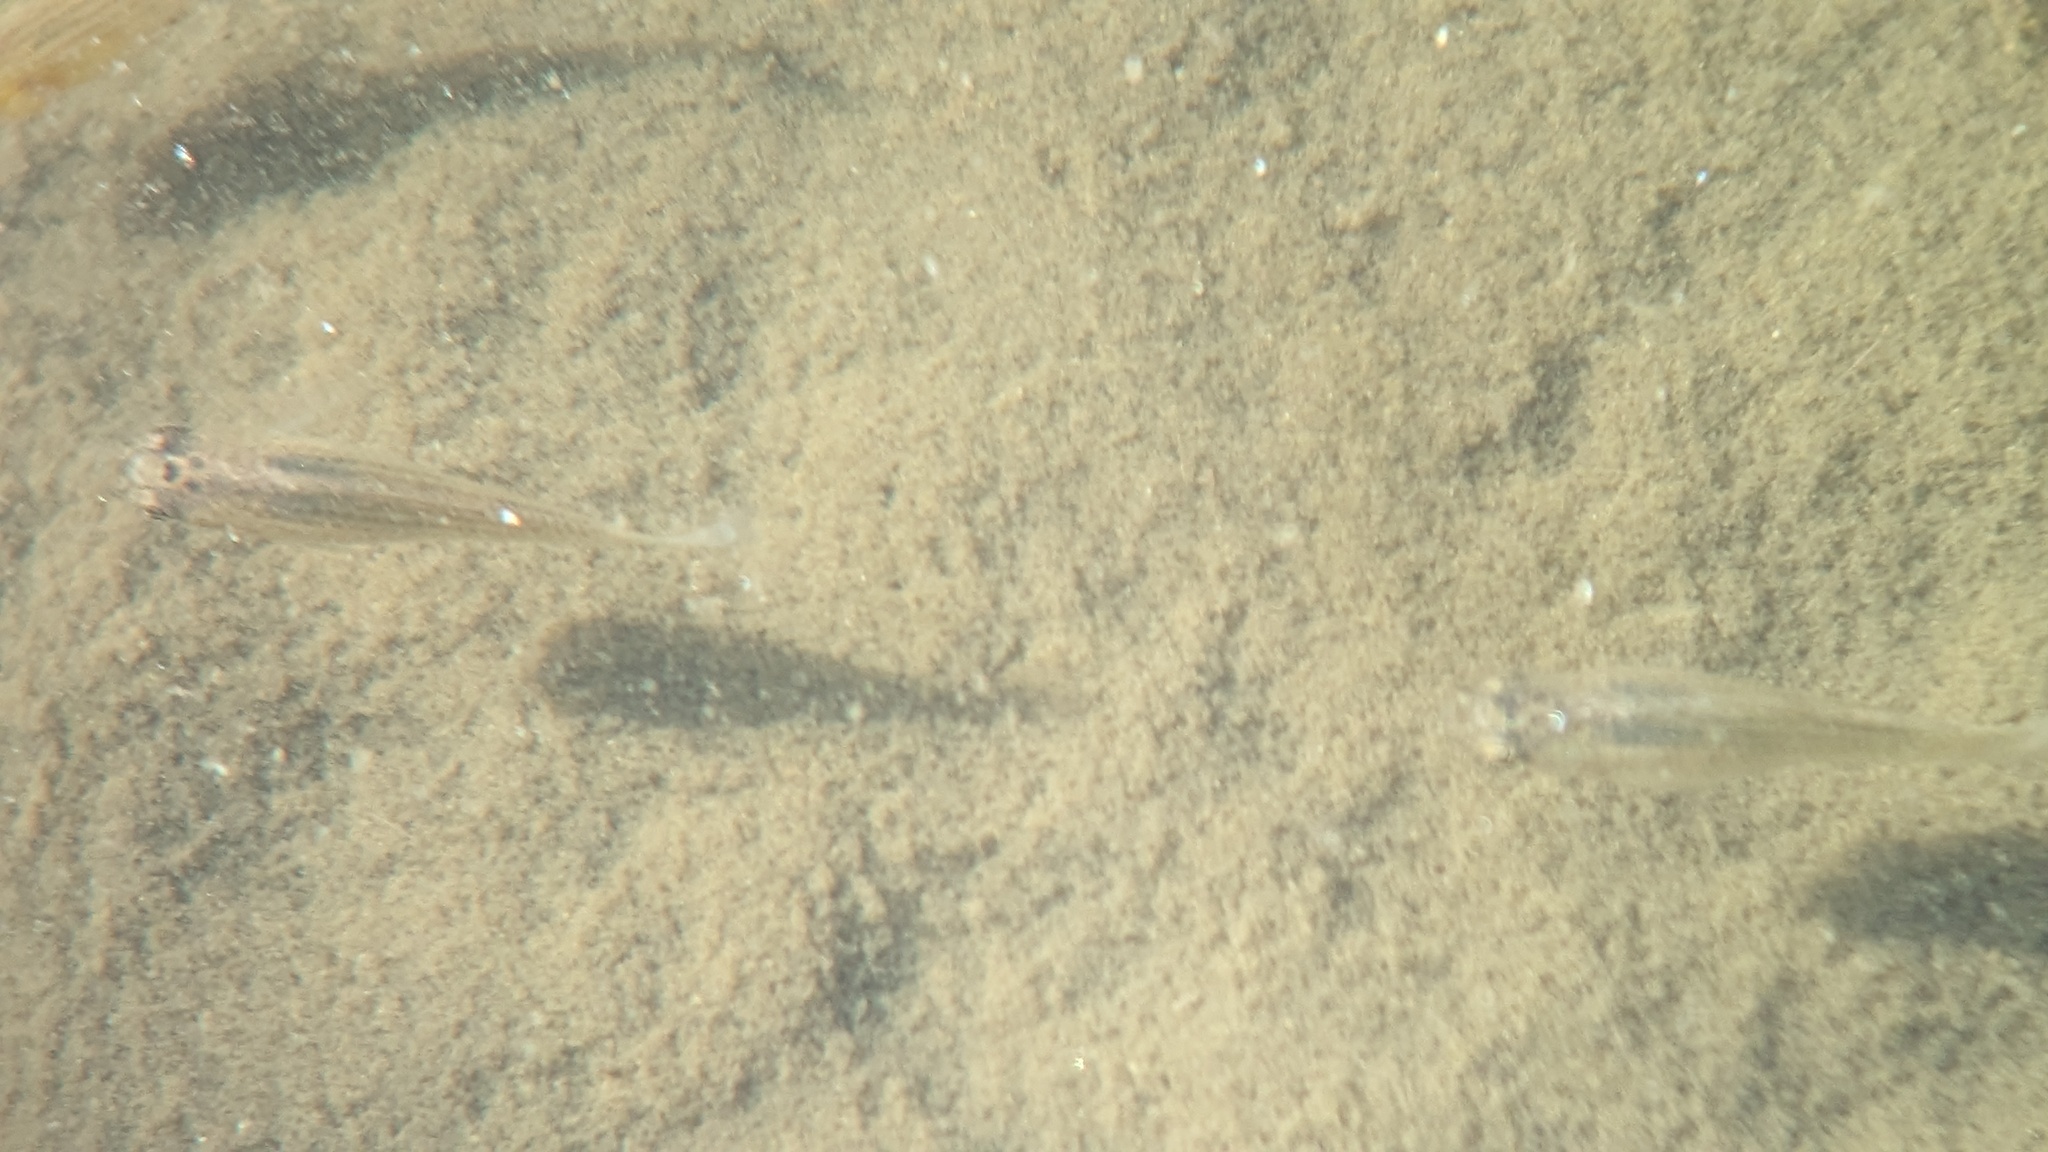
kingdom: Animalia
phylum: Chordata
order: Cyprinodontiformes
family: Poeciliidae
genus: Poecilia
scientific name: Poecilia latipinna
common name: Sailfin molly
